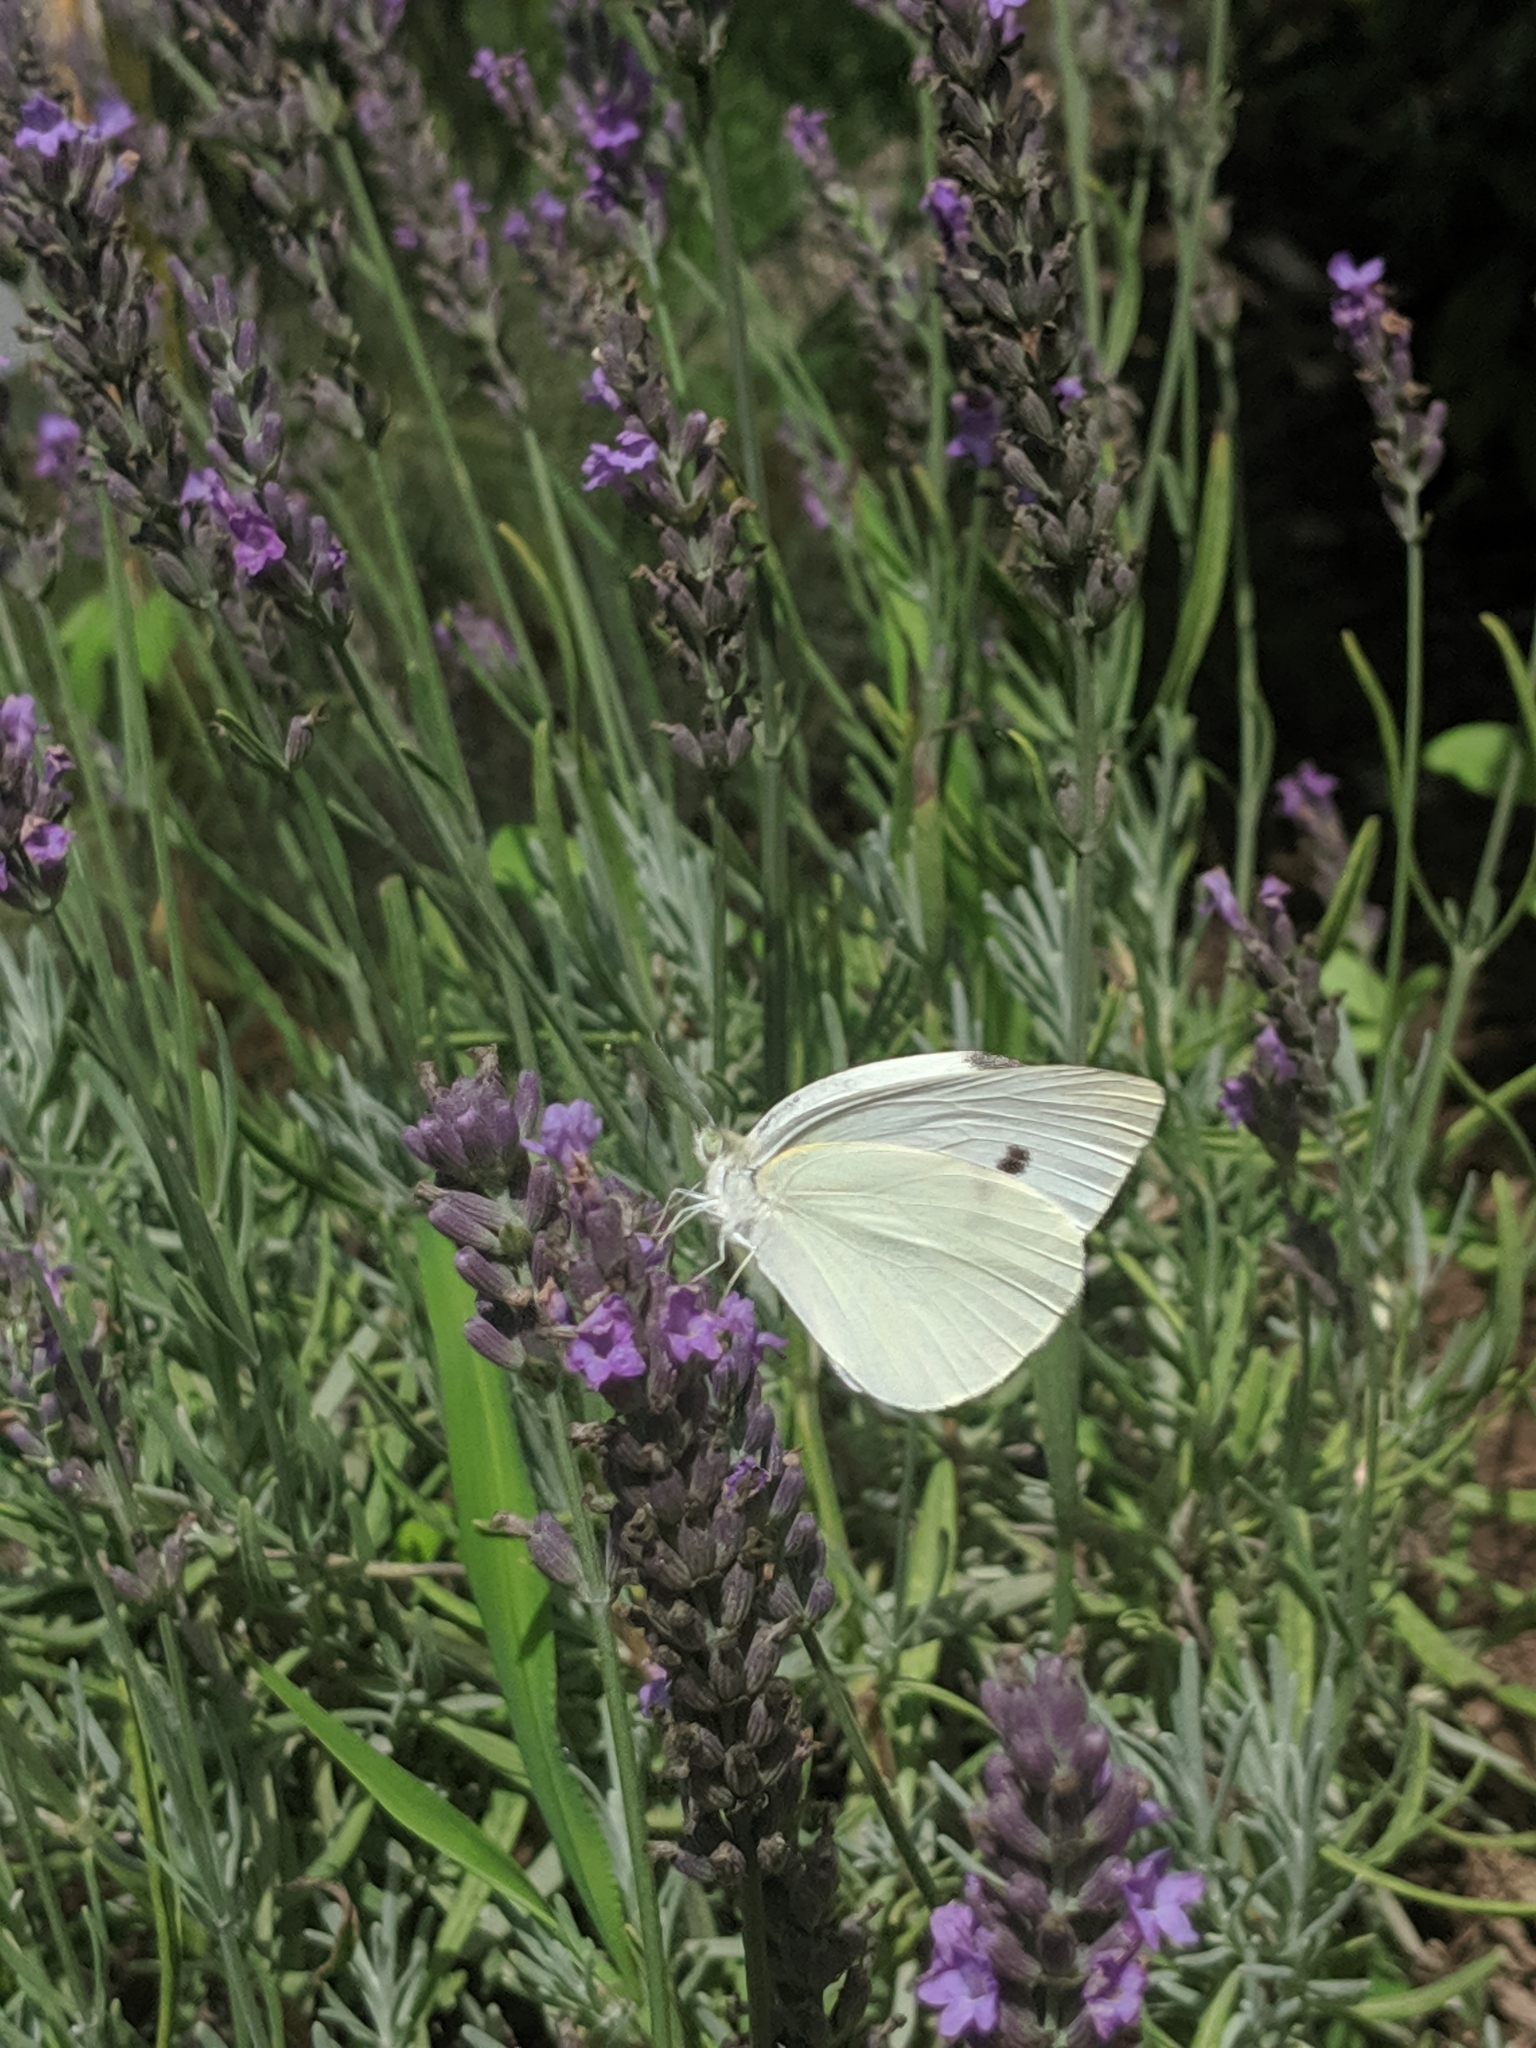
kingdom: Animalia
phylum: Arthropoda
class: Insecta
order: Lepidoptera
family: Pieridae
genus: Pieris
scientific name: Pieris rapae
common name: Small white
